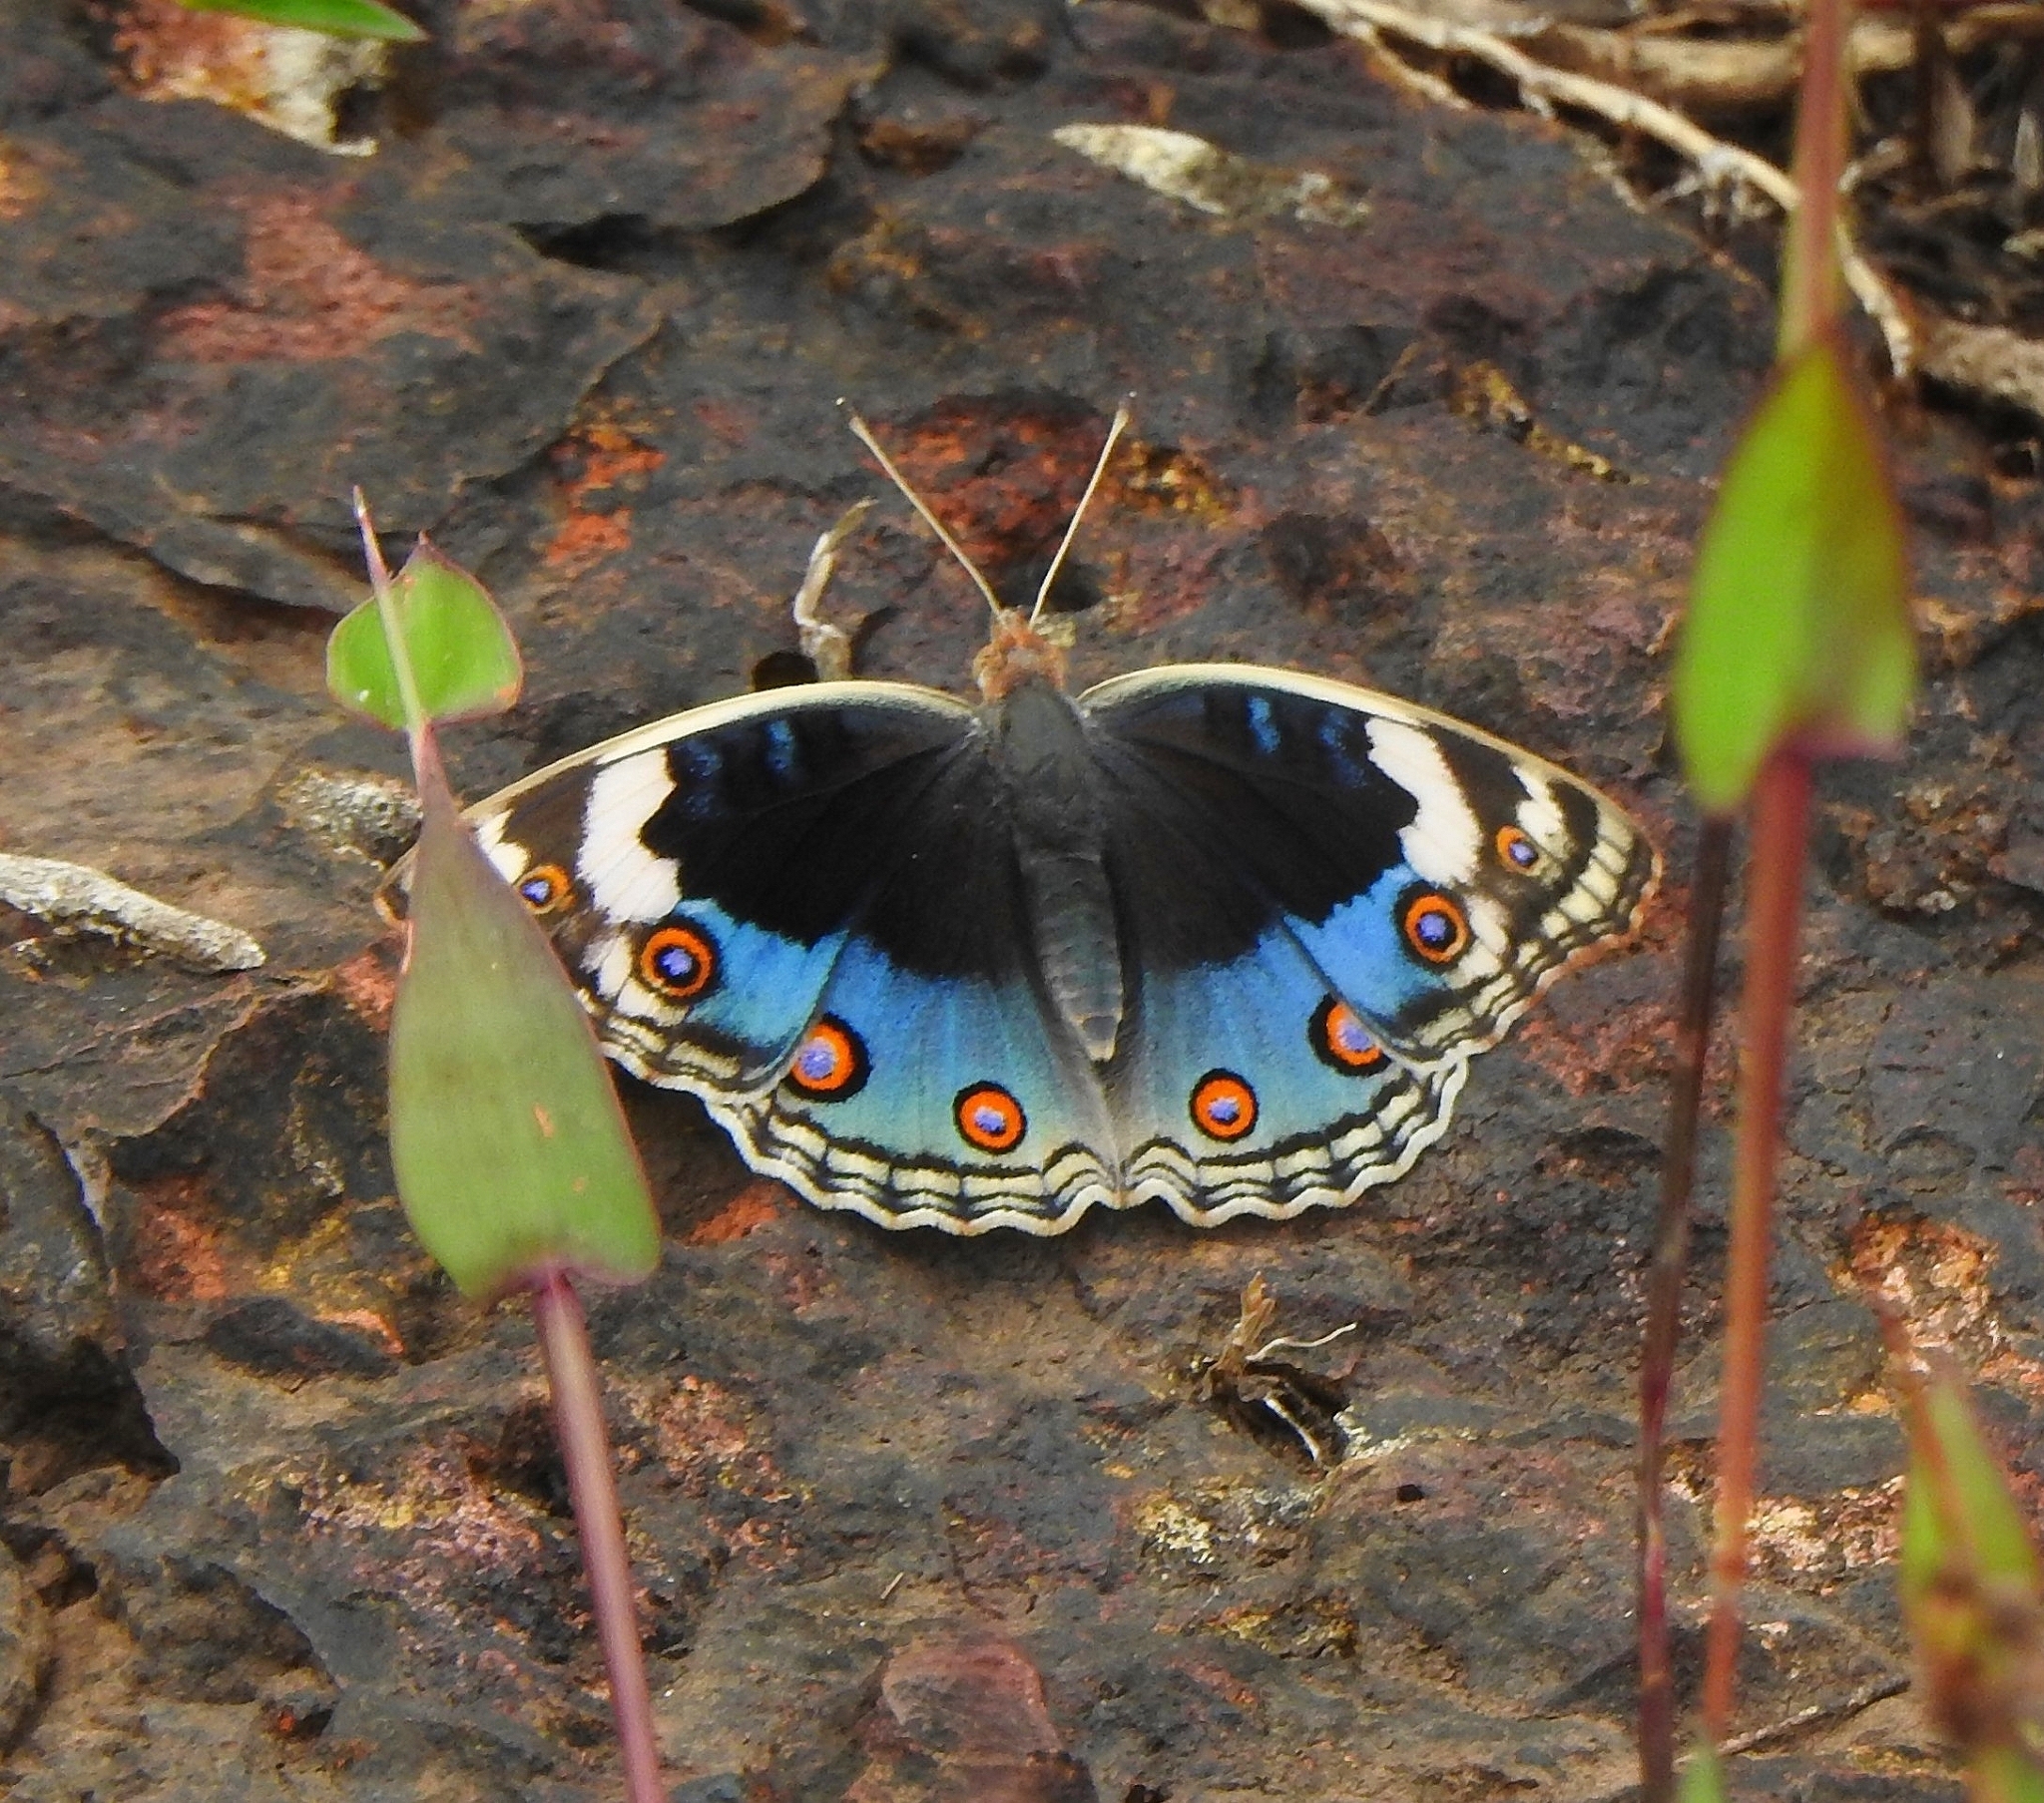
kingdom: Animalia
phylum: Arthropoda
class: Insecta
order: Lepidoptera
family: Nymphalidae
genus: Junonia
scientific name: Junonia orithya
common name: Blue pansy
